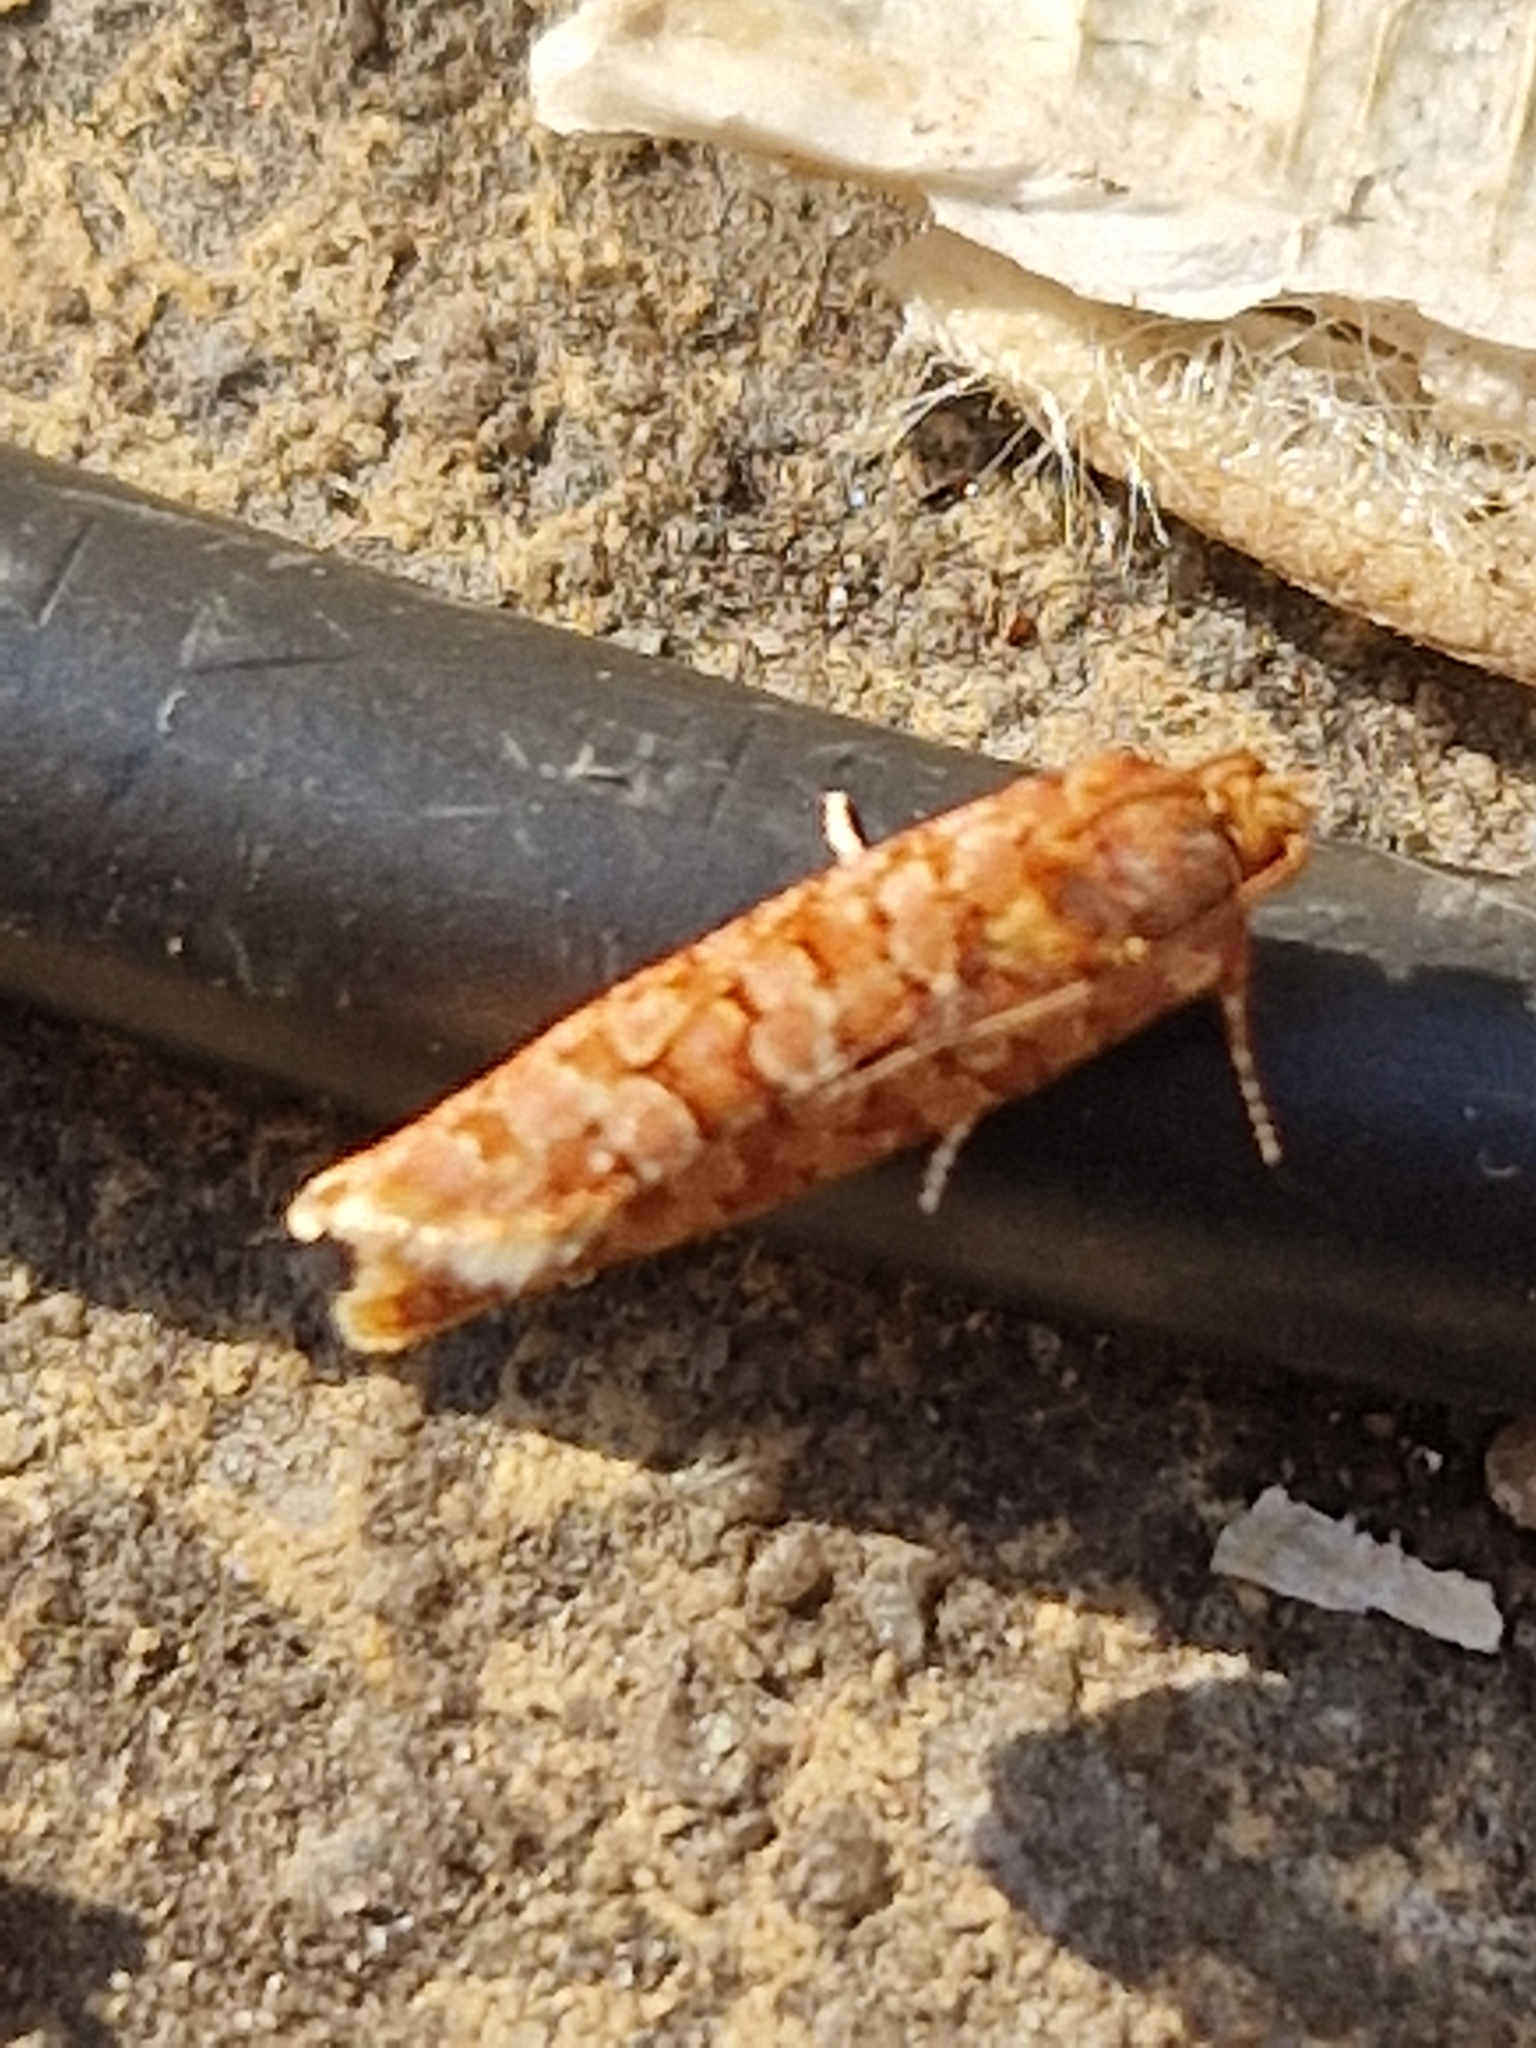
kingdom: Animalia
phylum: Arthropoda
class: Insecta
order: Lepidoptera
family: Tortricidae
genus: Lozotaeniodes
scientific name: Lozotaeniodes formosana
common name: Orange pine twist
